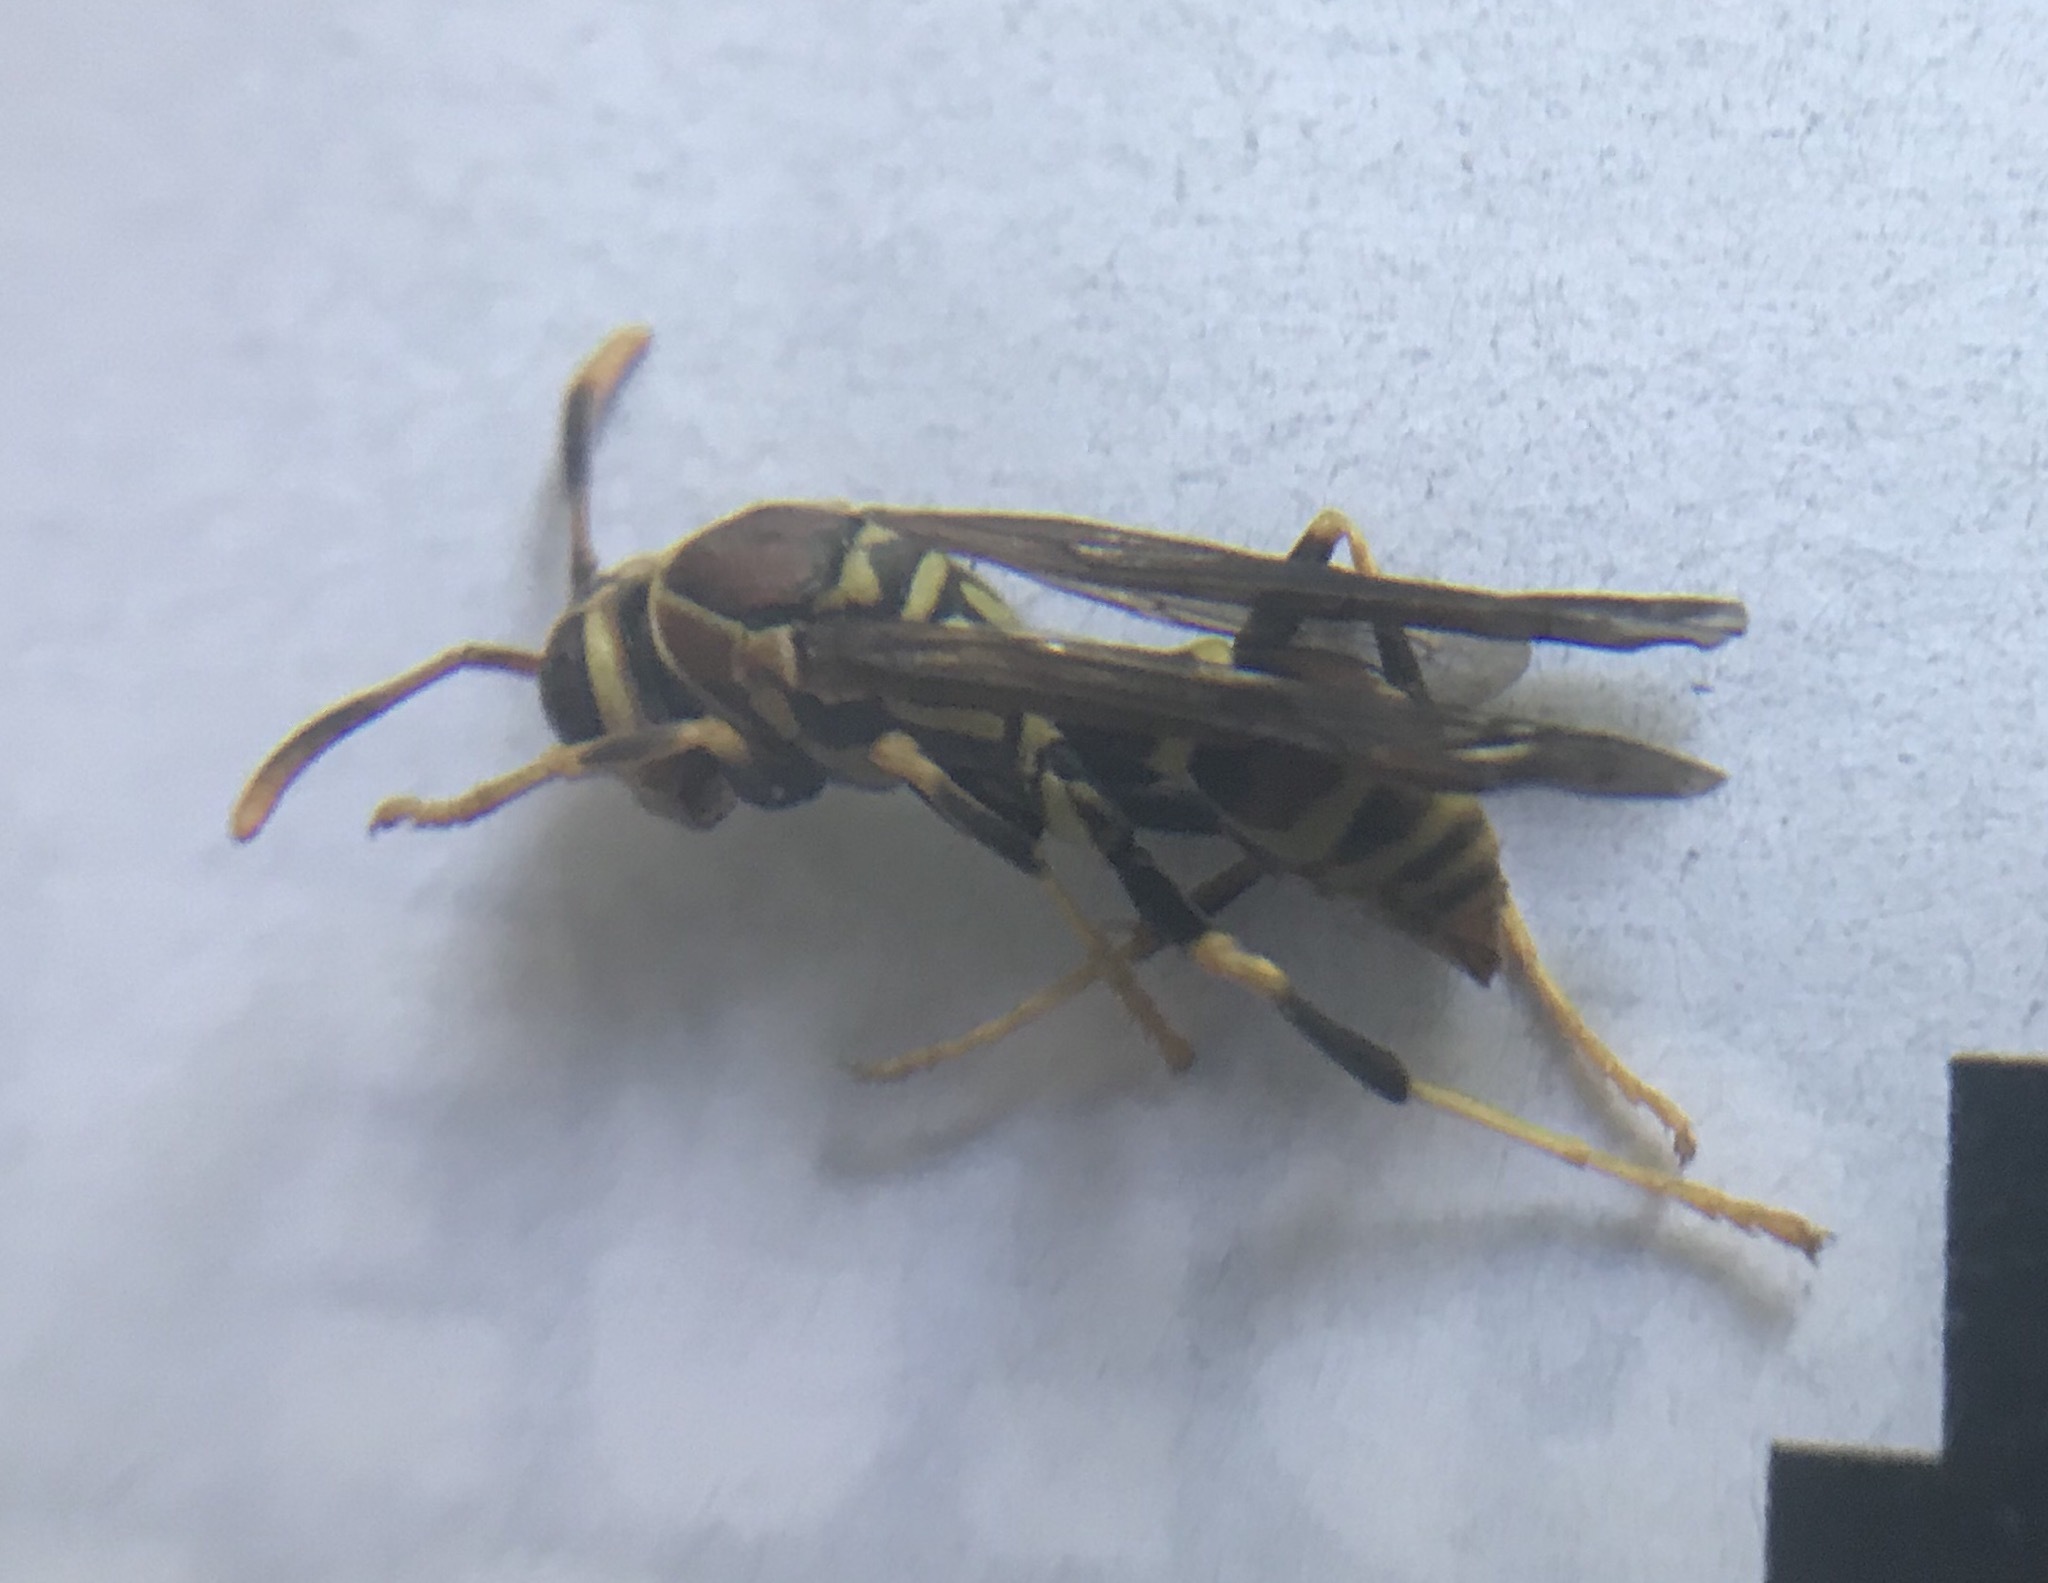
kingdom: Animalia
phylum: Arthropoda
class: Insecta
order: Hymenoptera
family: Eumenidae
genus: Polistes
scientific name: Polistes exclamans
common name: Paper wasp
